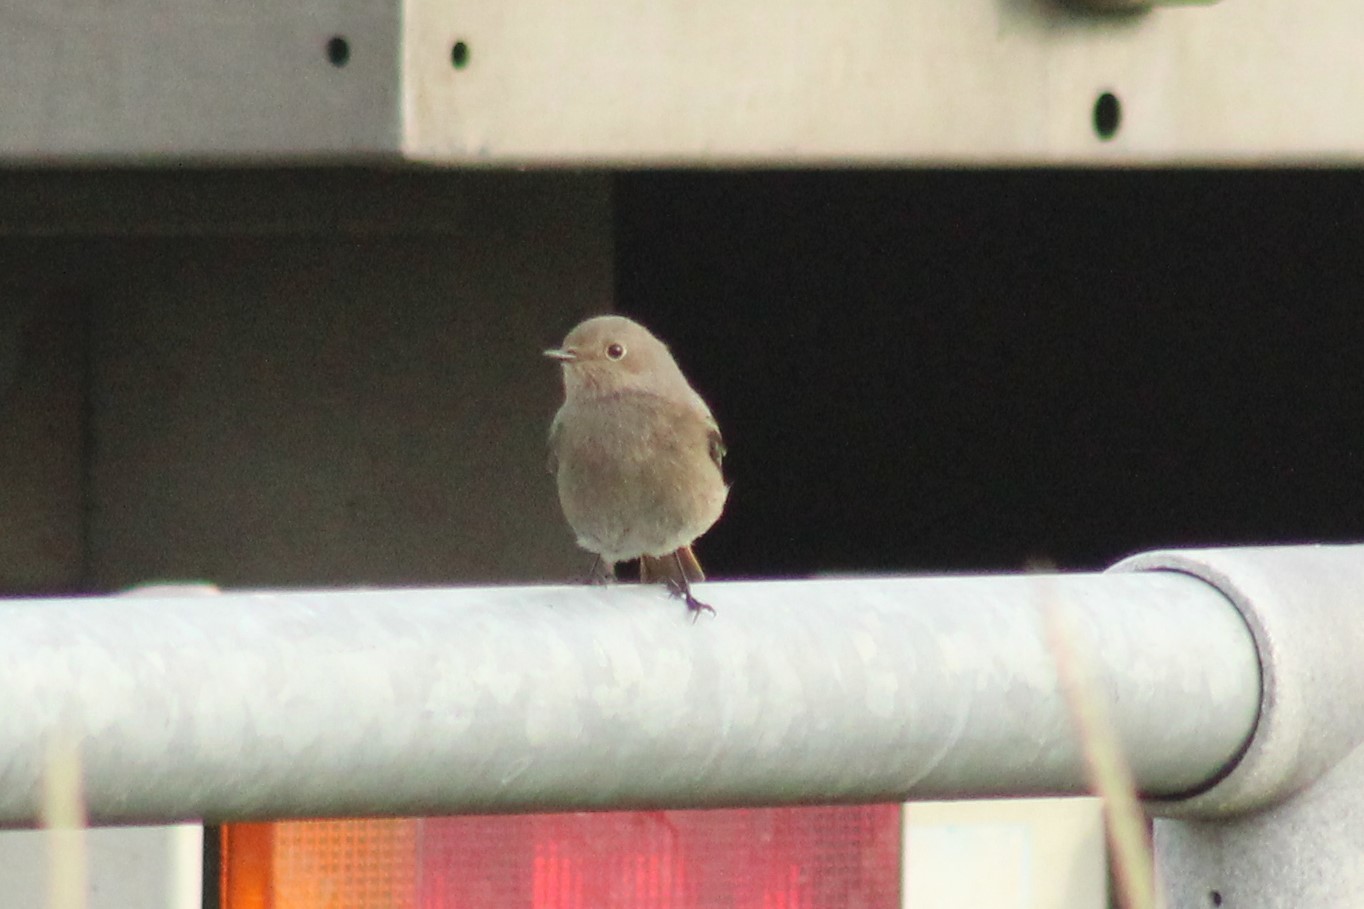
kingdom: Animalia
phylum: Chordata
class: Aves
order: Passeriformes
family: Muscicapidae
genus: Phoenicurus
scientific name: Phoenicurus ochruros
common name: Black redstart
